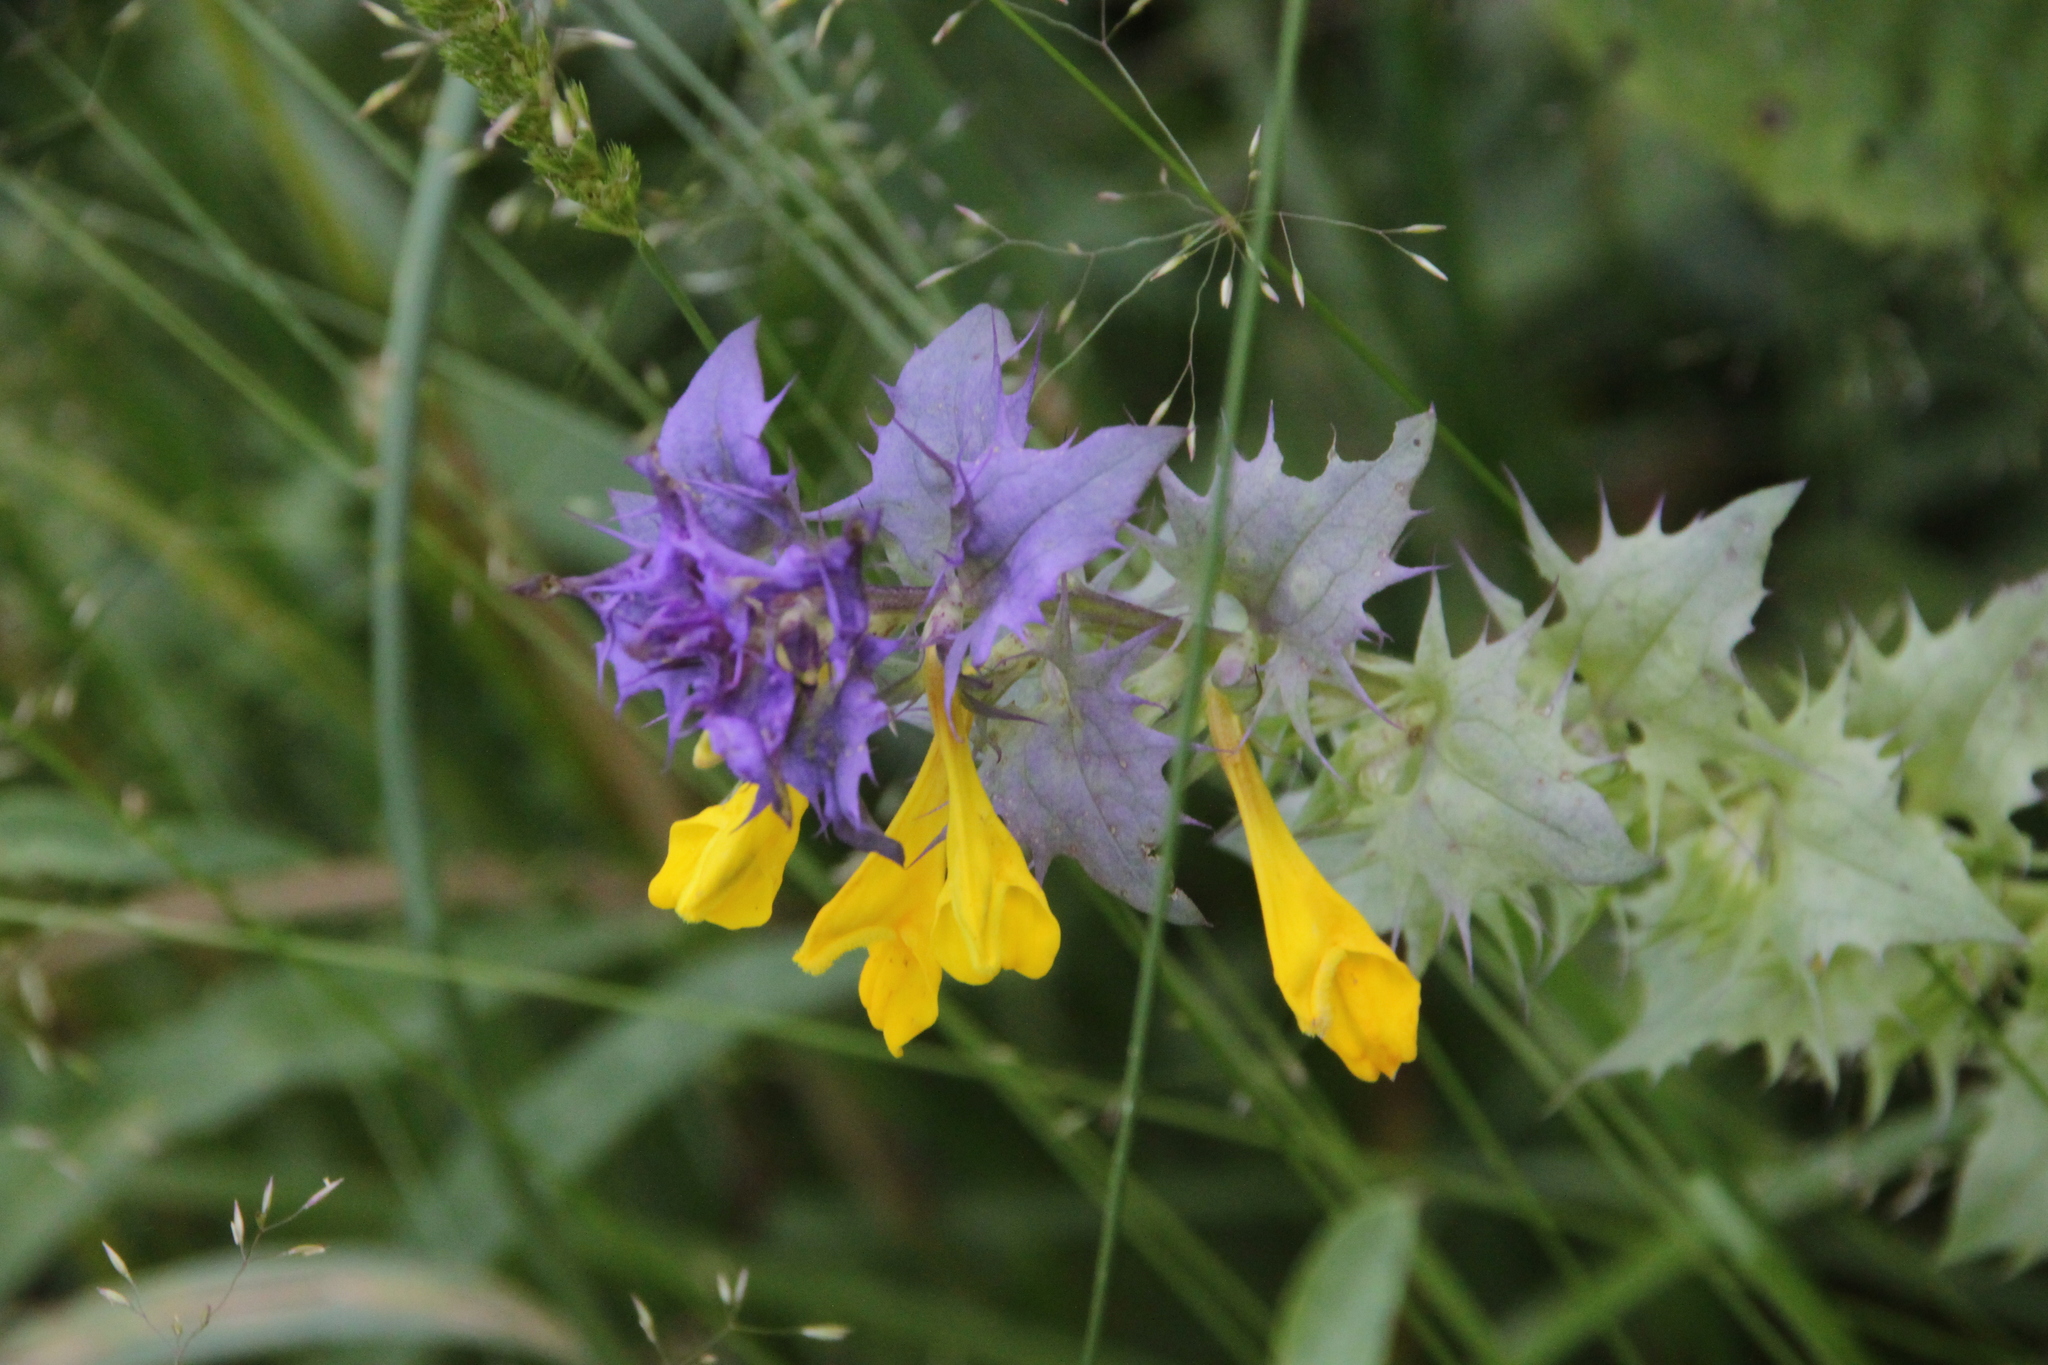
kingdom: Plantae
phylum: Tracheophyta
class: Magnoliopsida
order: Lamiales
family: Orobanchaceae
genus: Melampyrum
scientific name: Melampyrum nemorosum
